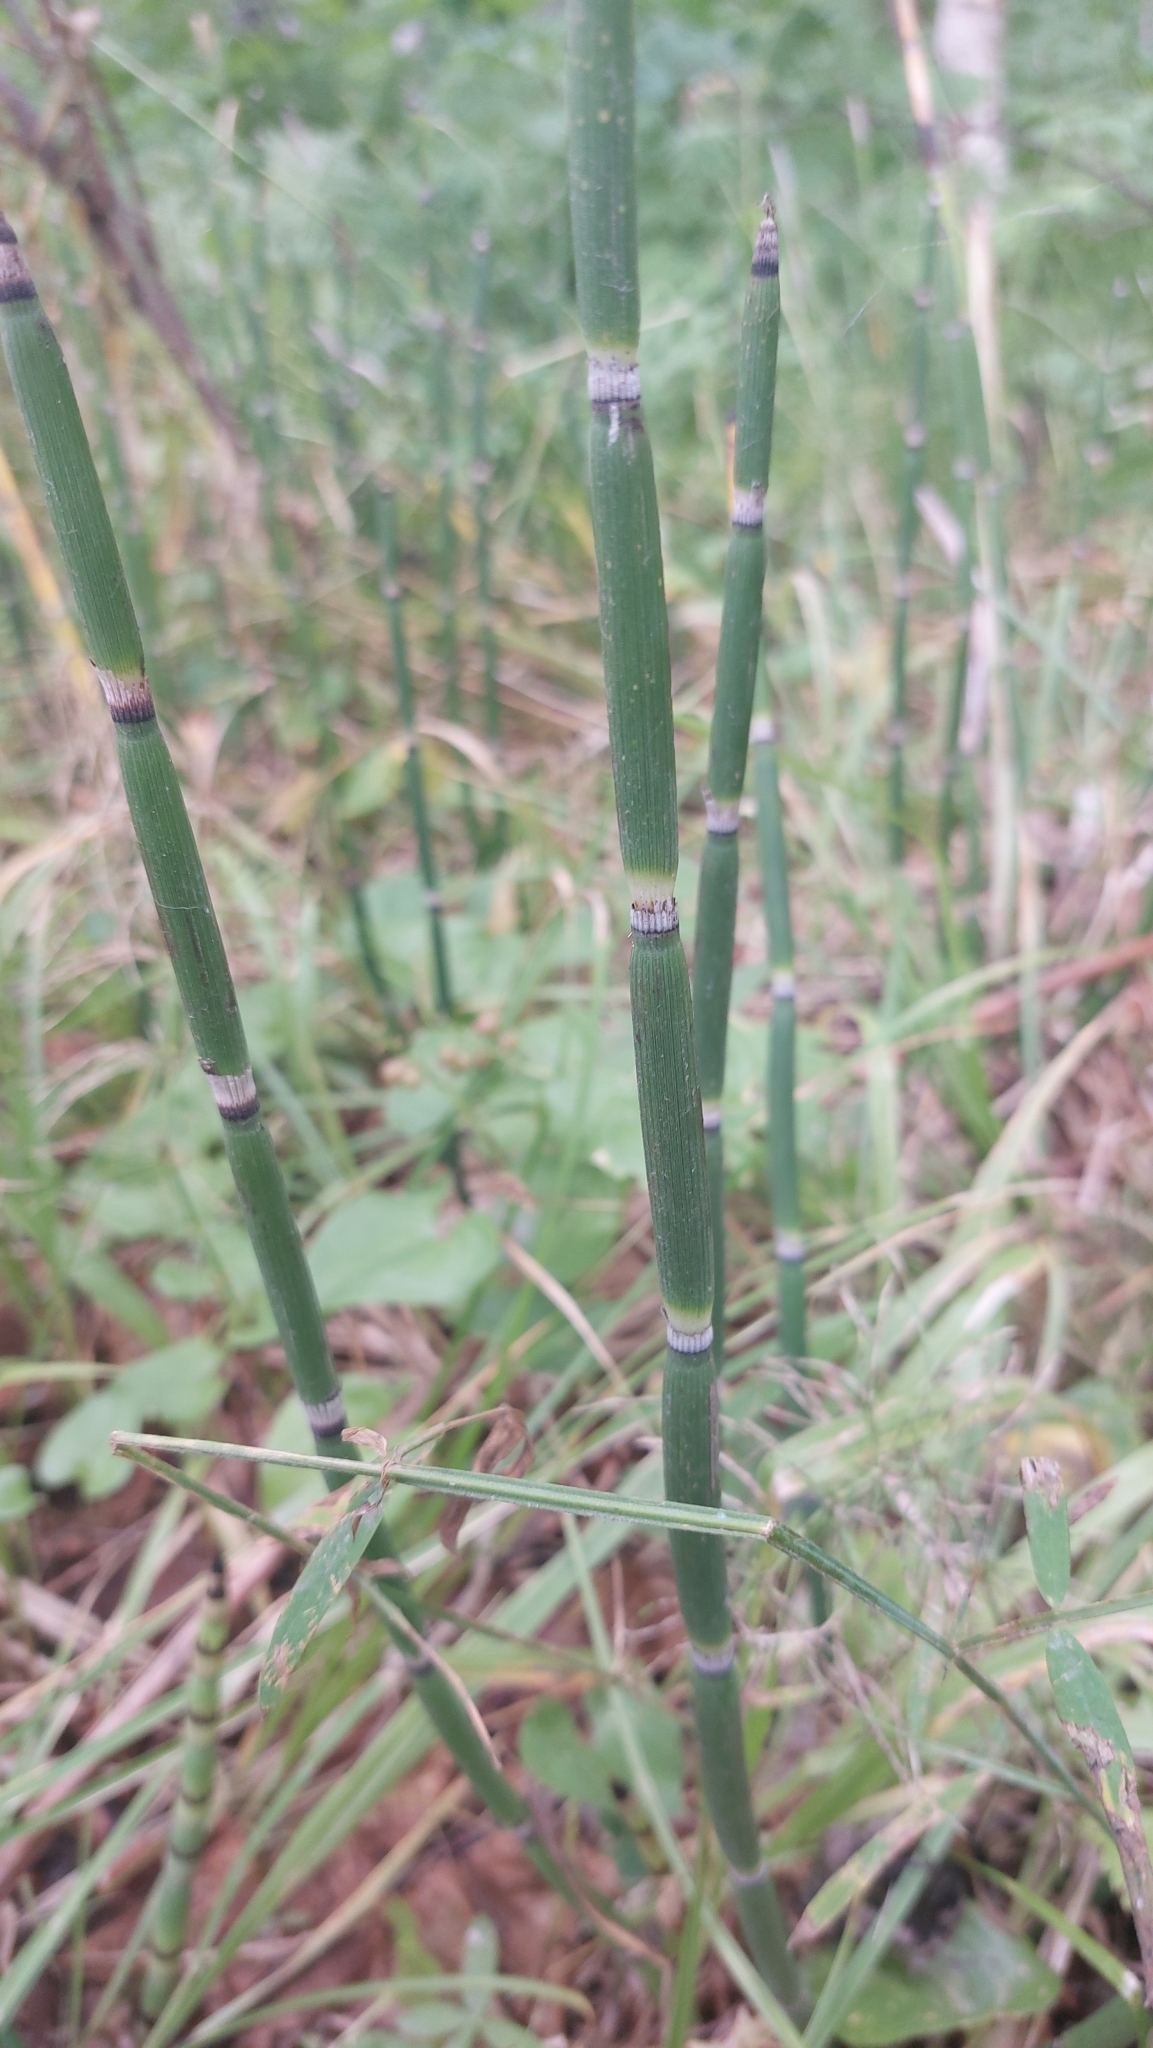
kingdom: Plantae
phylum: Tracheophyta
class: Polypodiopsida
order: Equisetales
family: Equisetaceae
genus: Equisetum
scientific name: Equisetum hyemale
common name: Rough horsetail
